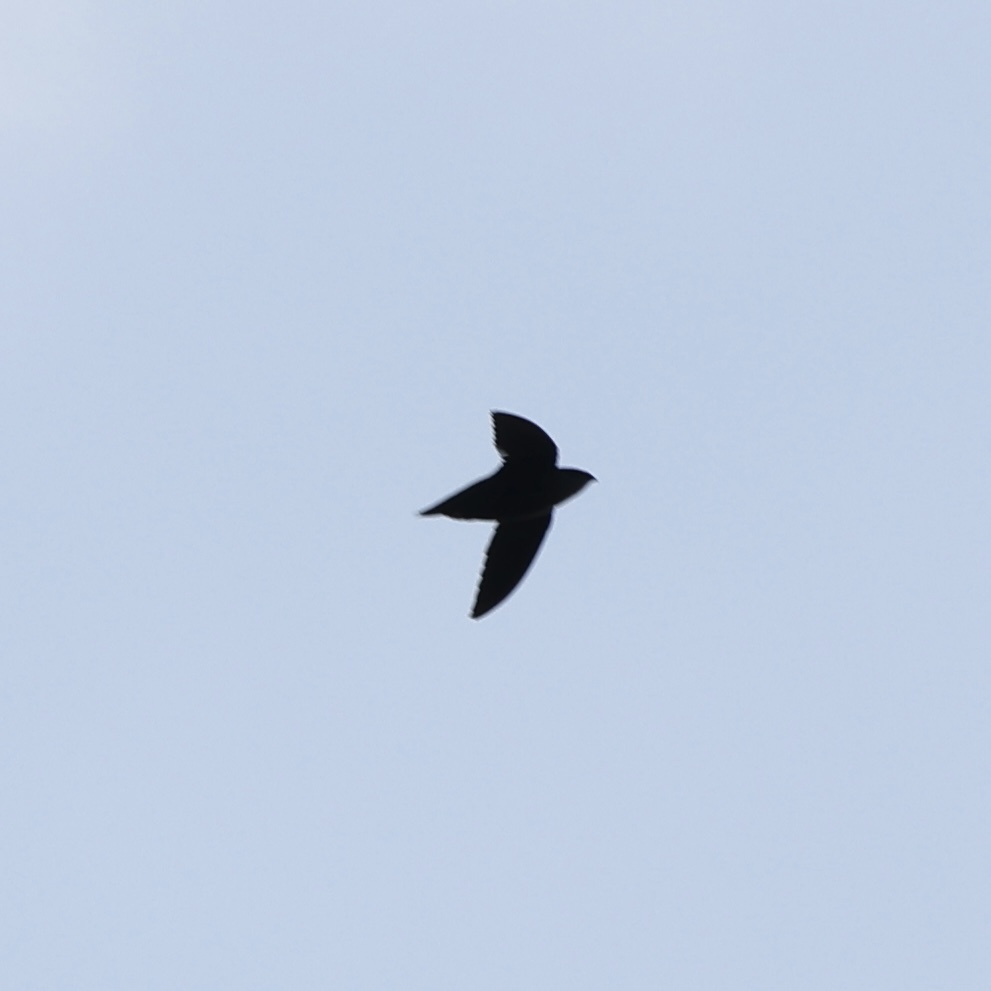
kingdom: Animalia
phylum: Chordata
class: Aves
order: Apodiformes
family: Apodidae
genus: Chaetura
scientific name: Chaetura pelagica
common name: Chimney swift
